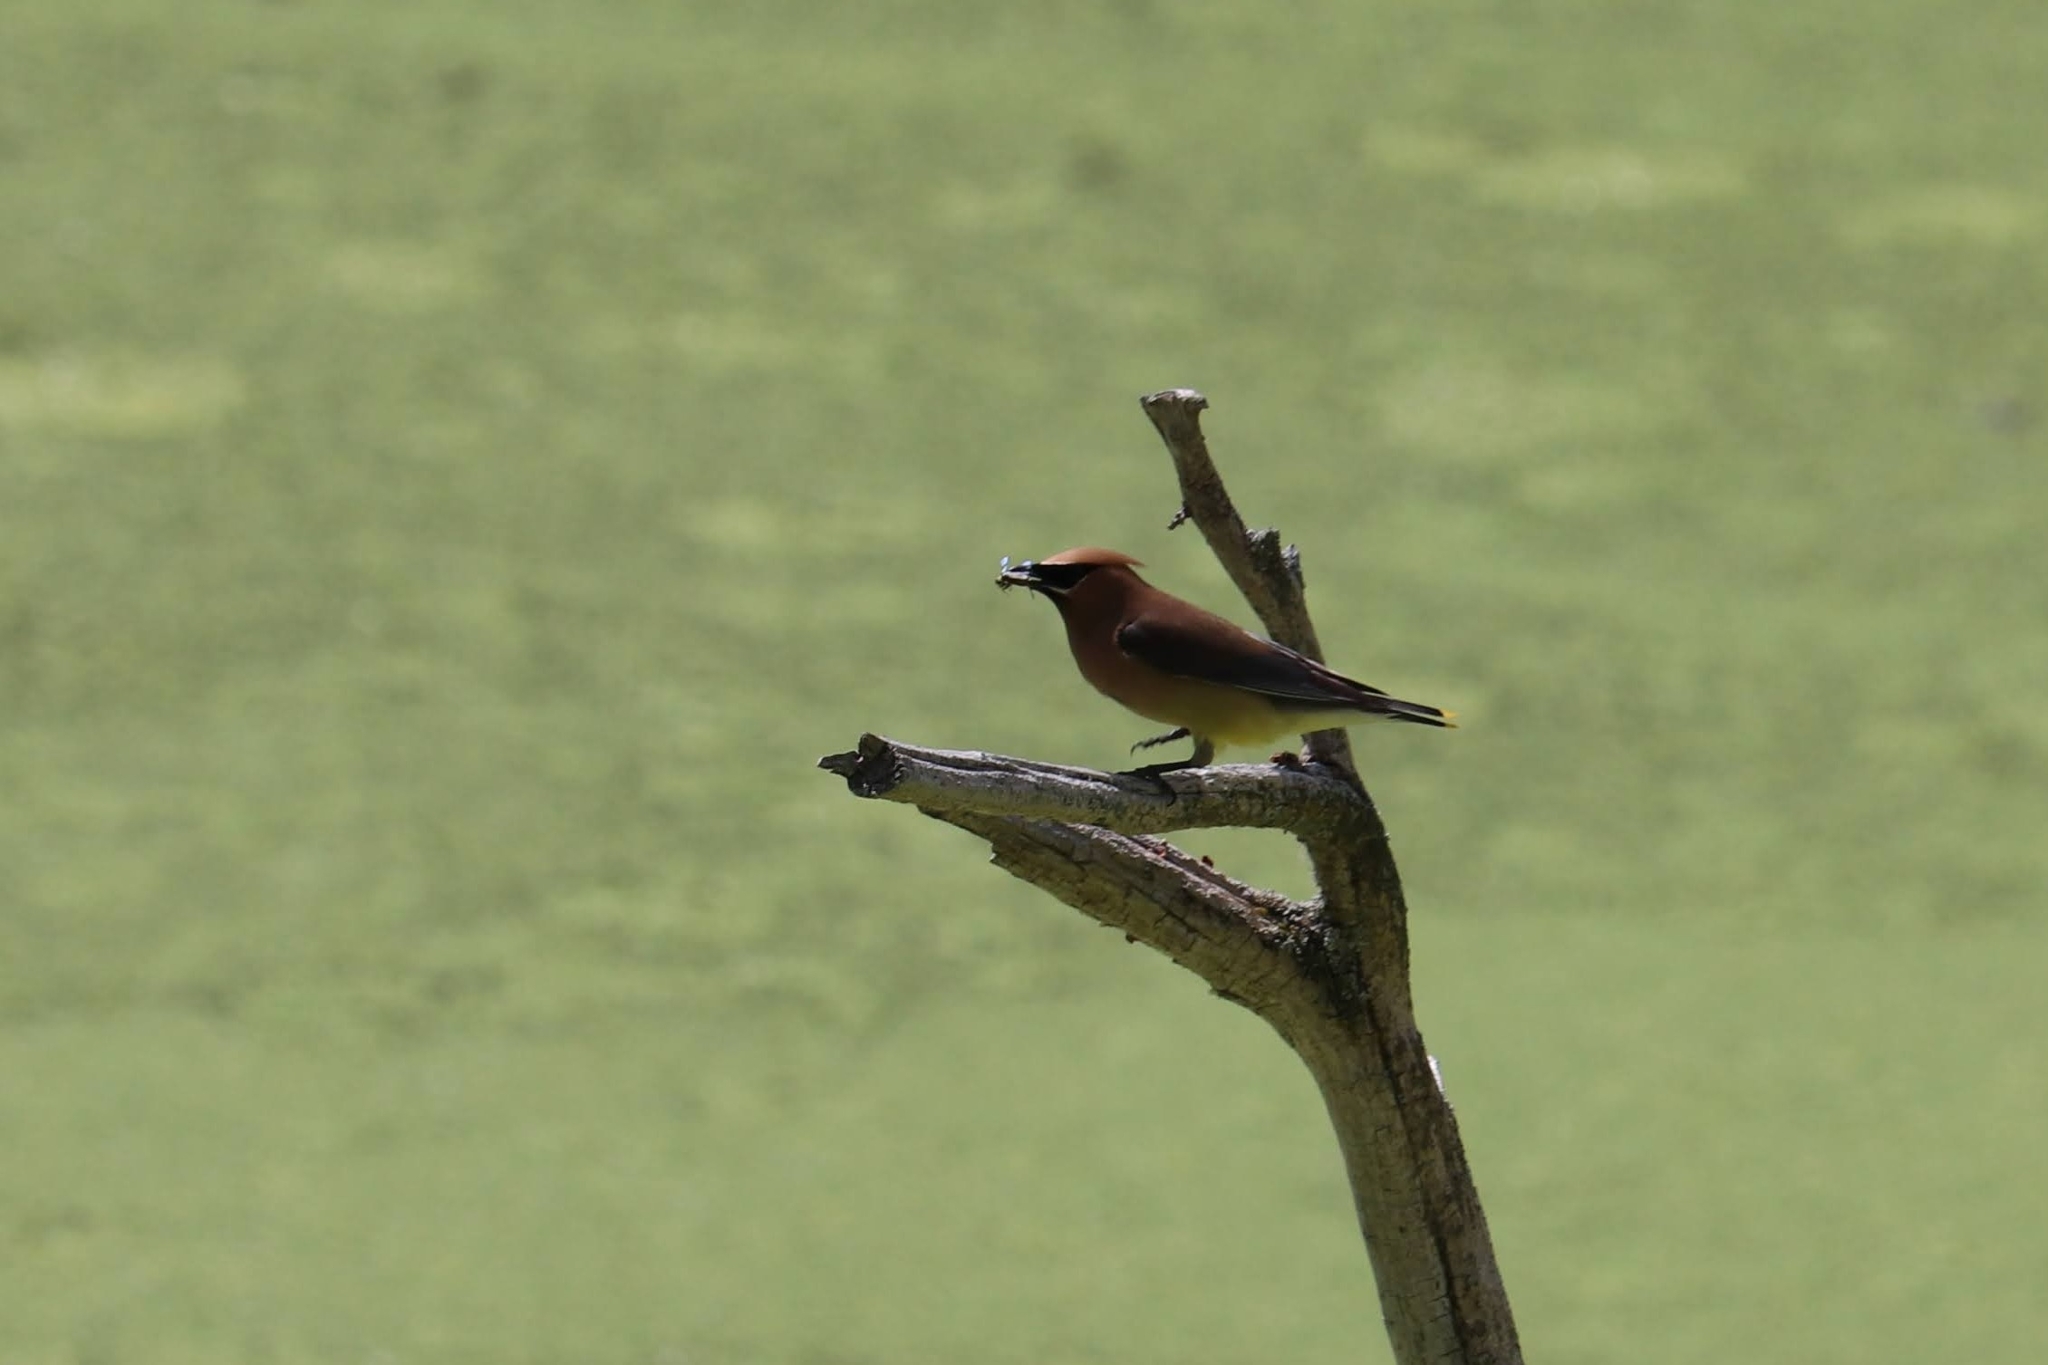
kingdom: Animalia
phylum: Chordata
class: Aves
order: Passeriformes
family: Bombycillidae
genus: Bombycilla
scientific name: Bombycilla cedrorum
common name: Cedar waxwing
